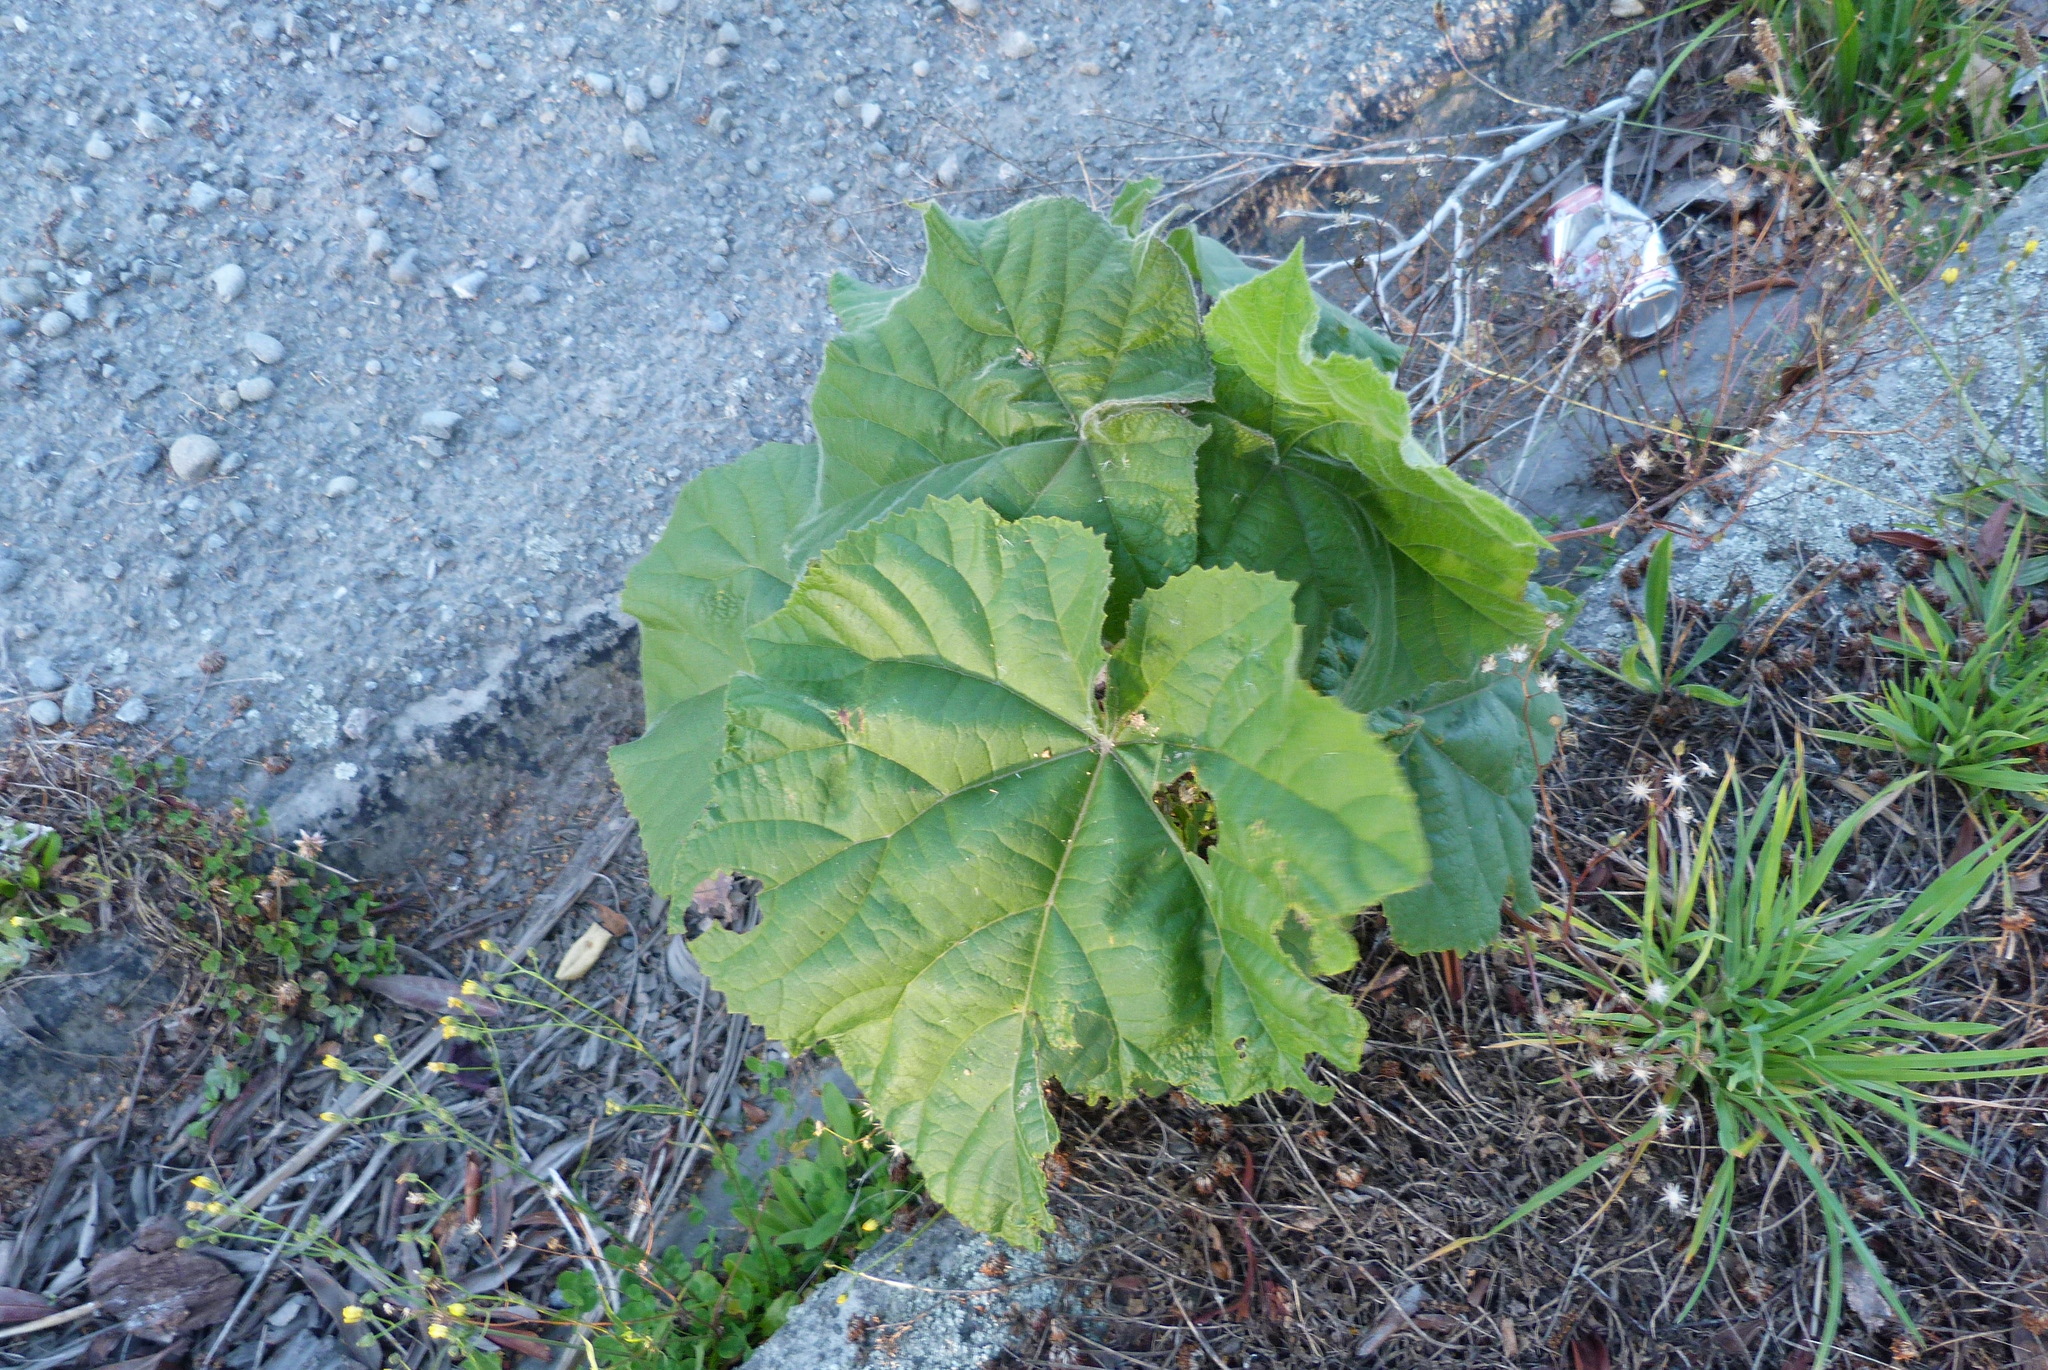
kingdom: Plantae
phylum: Tracheophyta
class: Magnoliopsida
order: Lamiales
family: Paulowniaceae
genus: Paulownia
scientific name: Paulownia tomentosa
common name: Foxglove-tree
